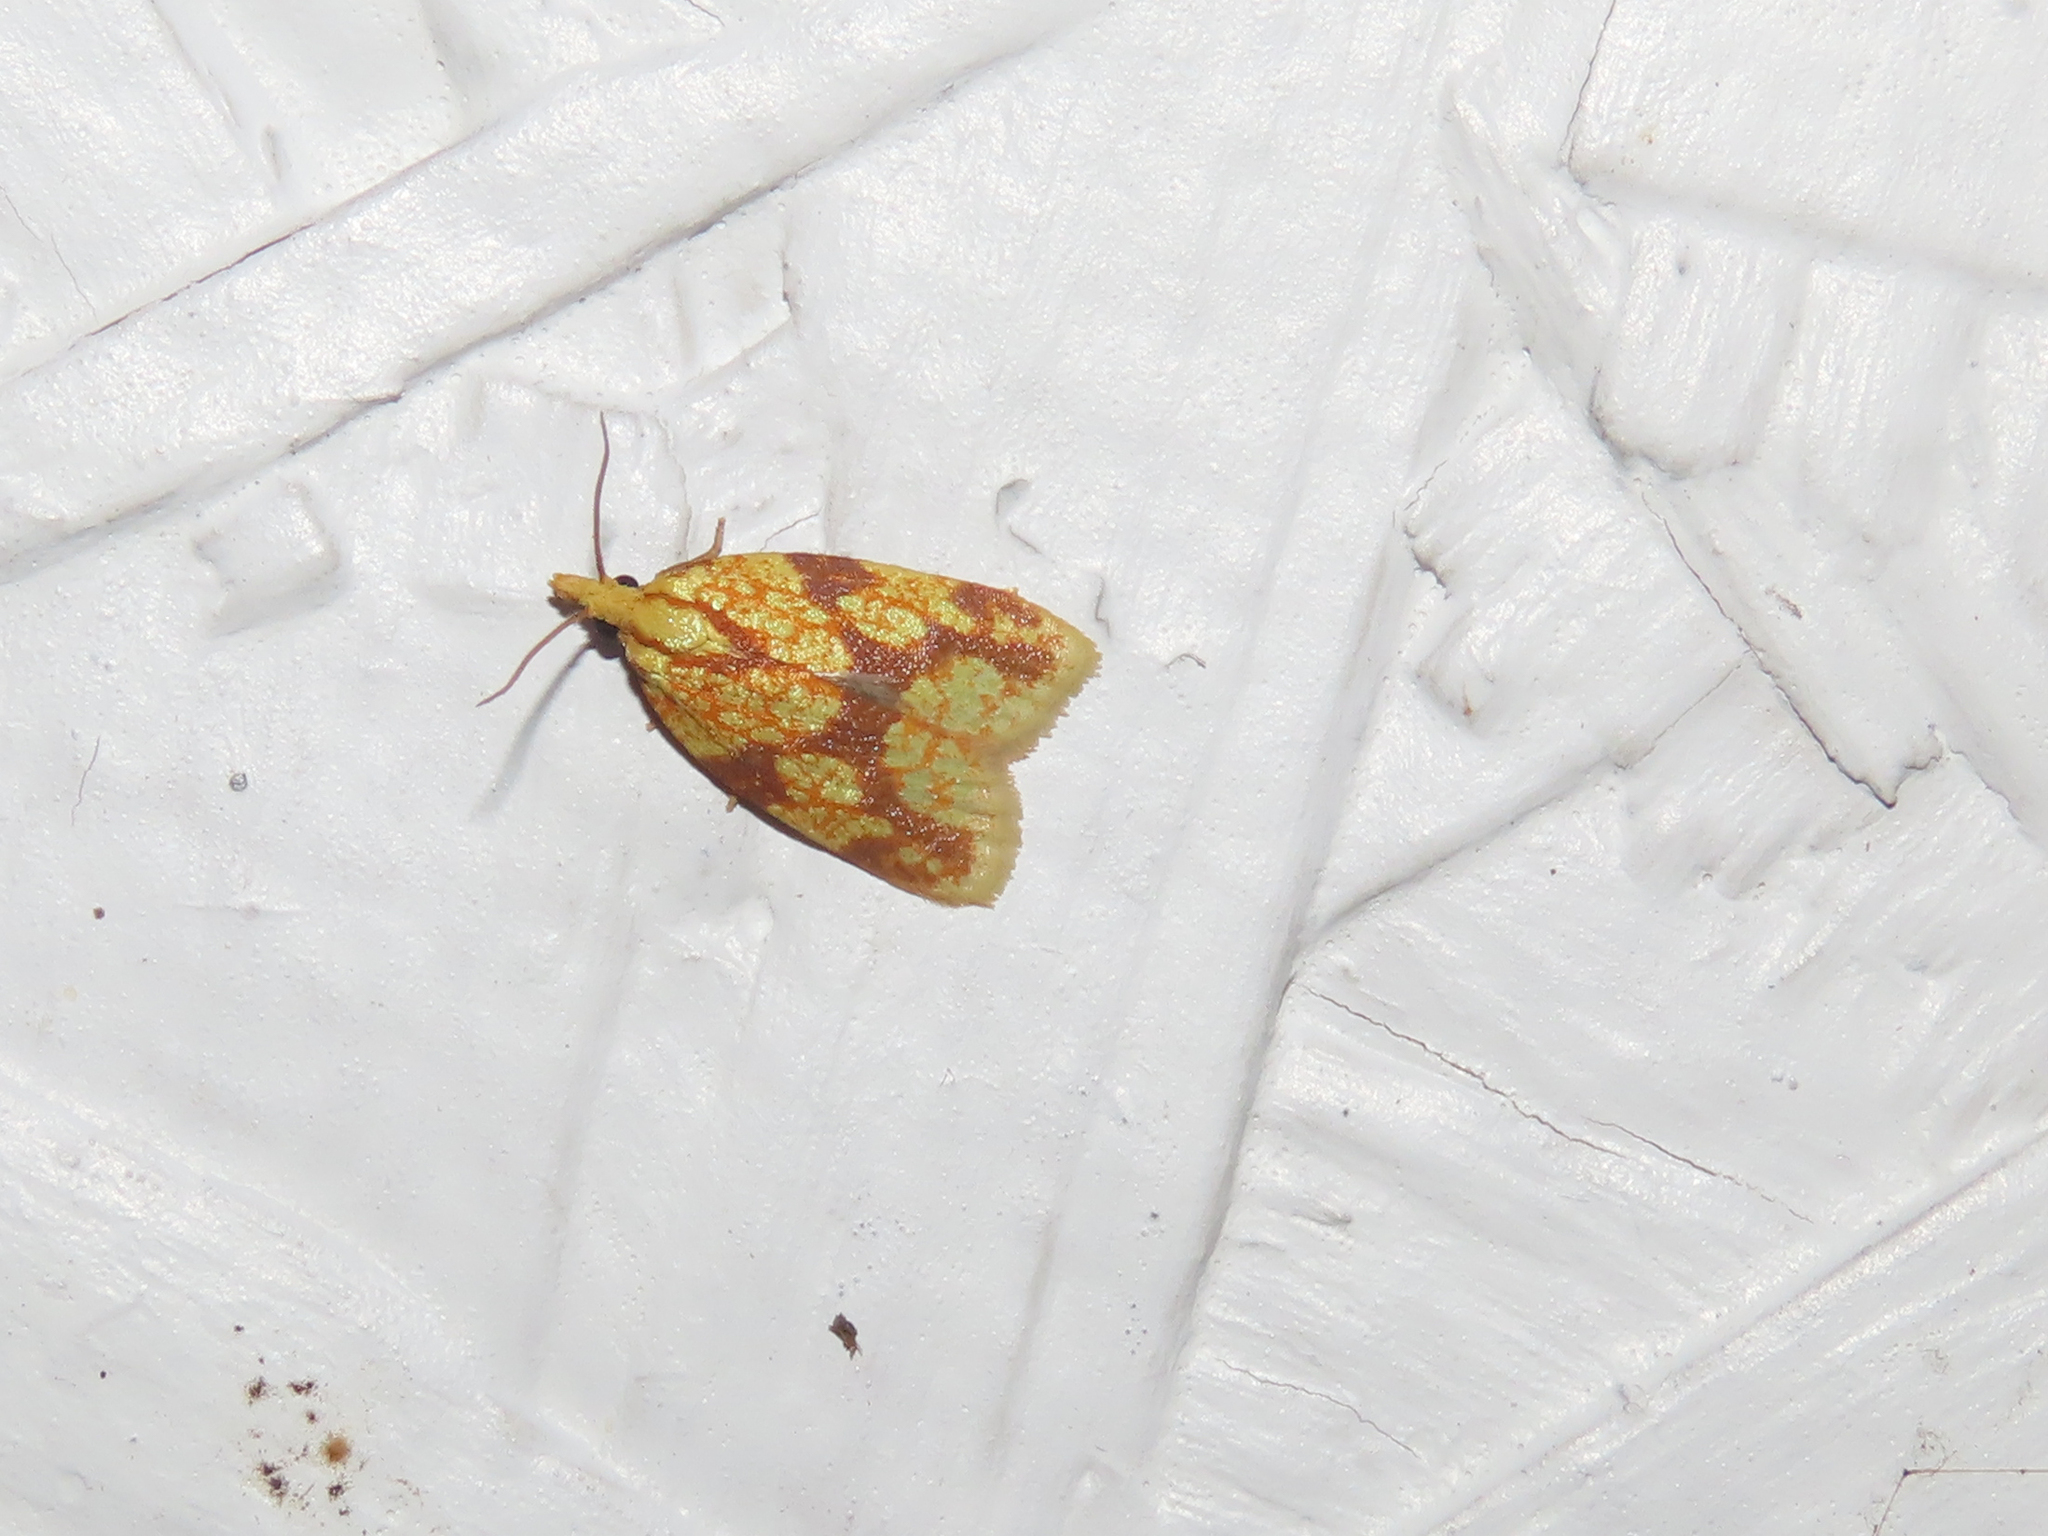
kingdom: Animalia
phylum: Arthropoda
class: Insecta
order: Lepidoptera
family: Tortricidae
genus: Sparganothis
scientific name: Sparganothis sulfureana
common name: Sparganothis fruitworm moth
